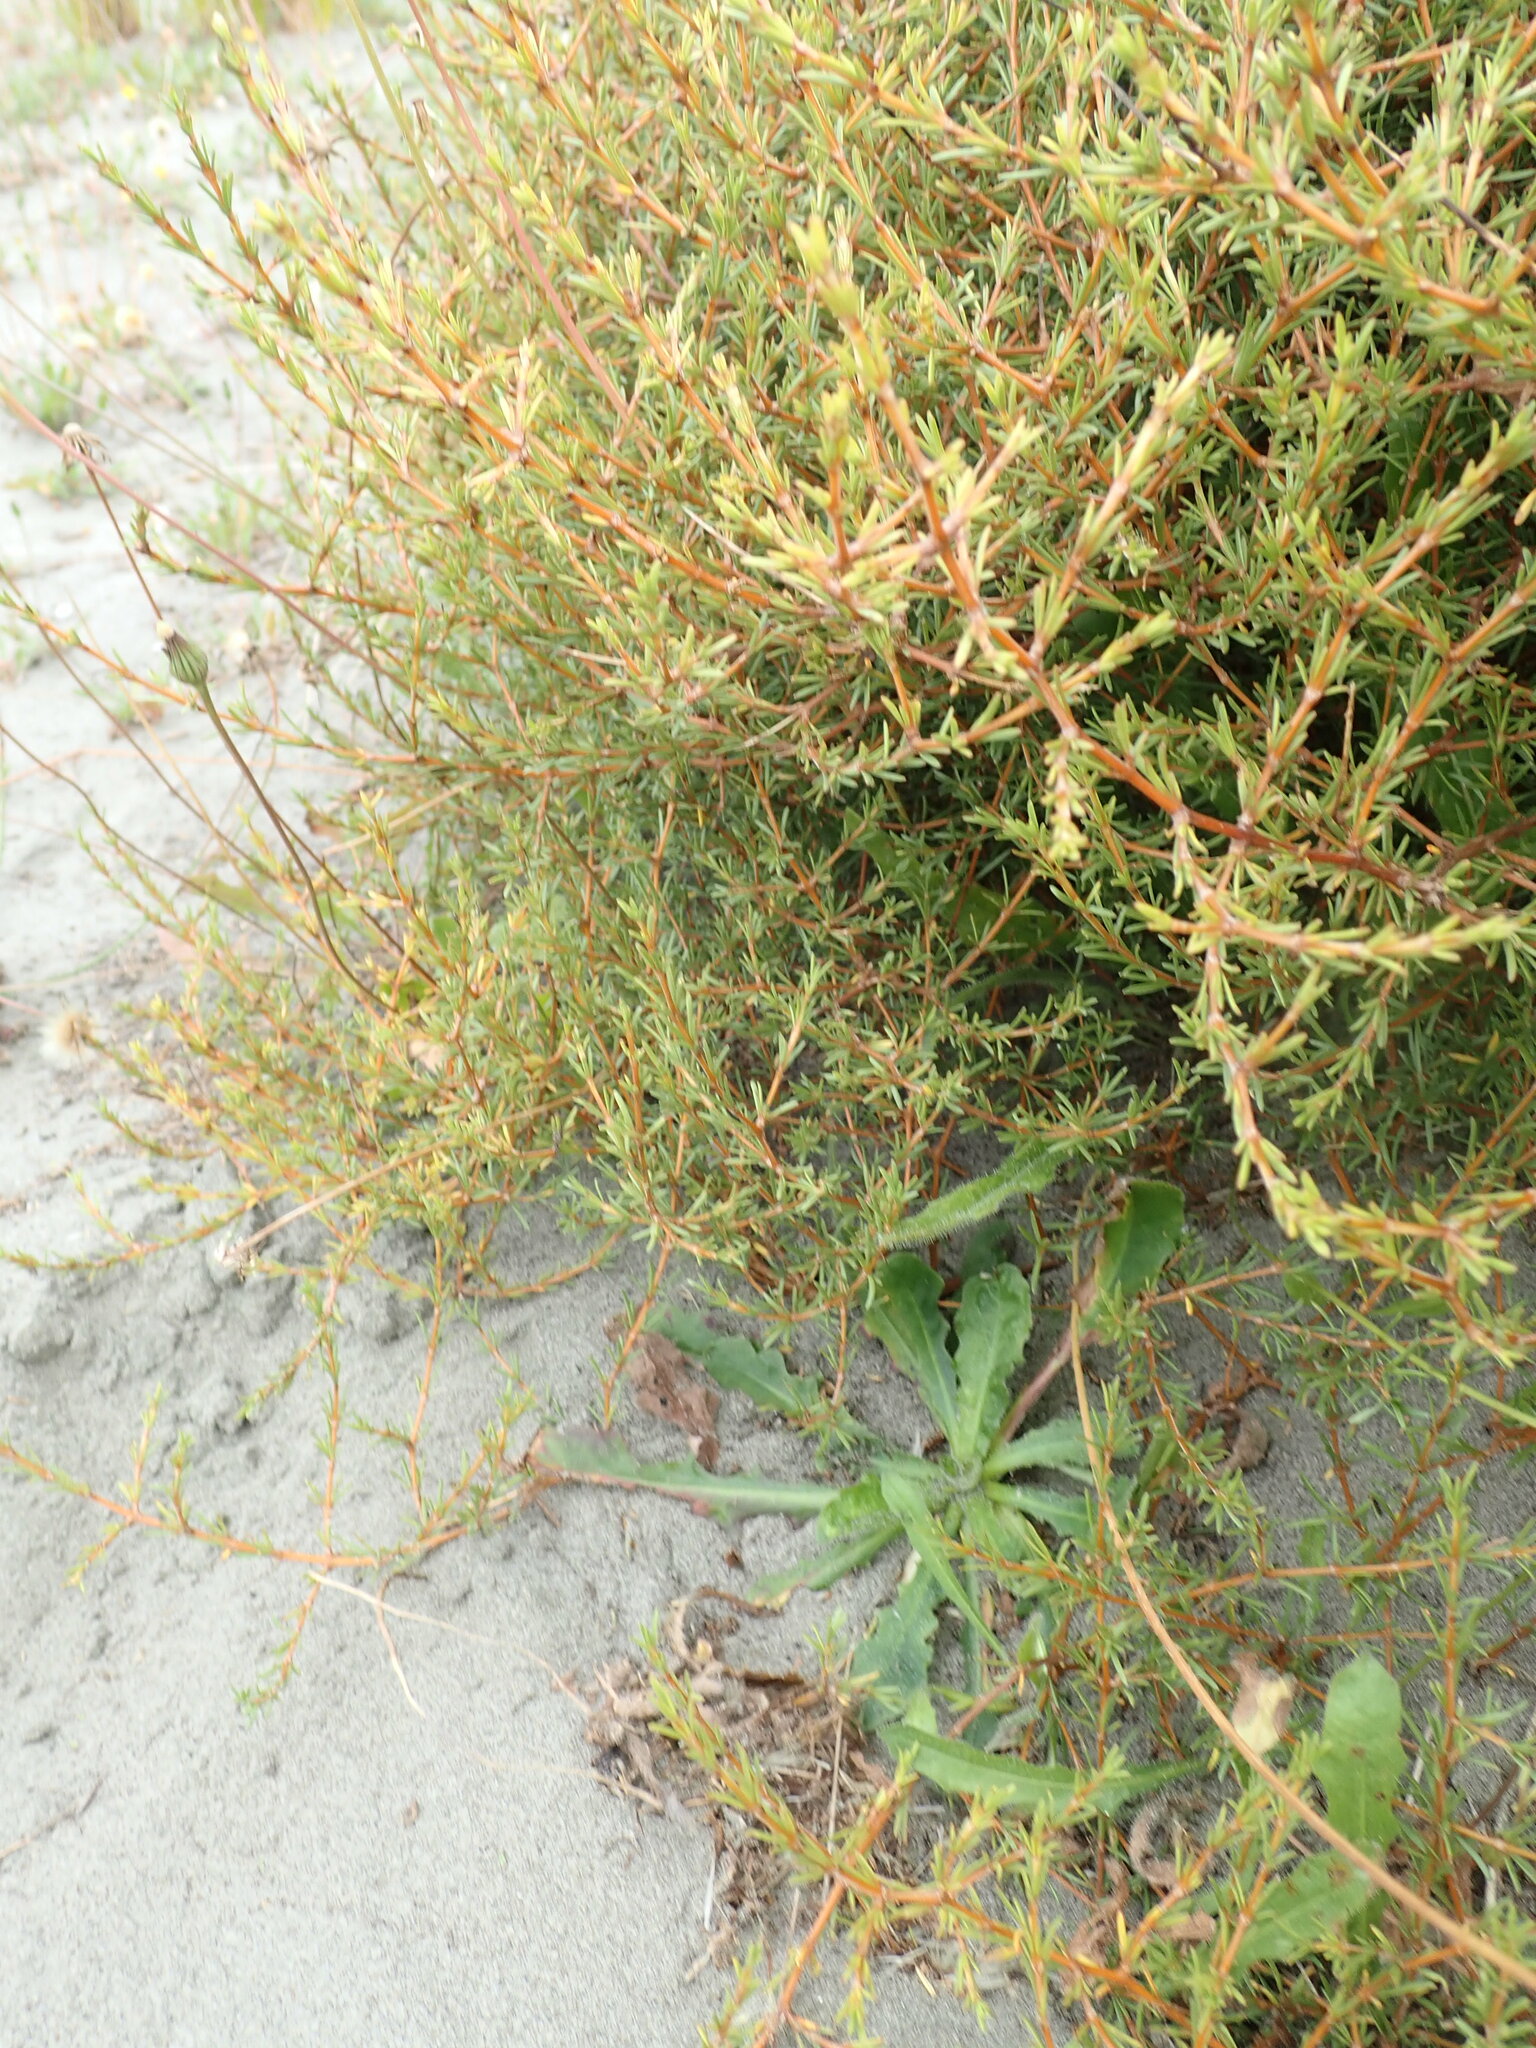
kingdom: Plantae
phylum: Tracheophyta
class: Magnoliopsida
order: Gentianales
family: Rubiaceae
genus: Coprosma
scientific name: Coprosma acerosa
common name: Sand coprosma
